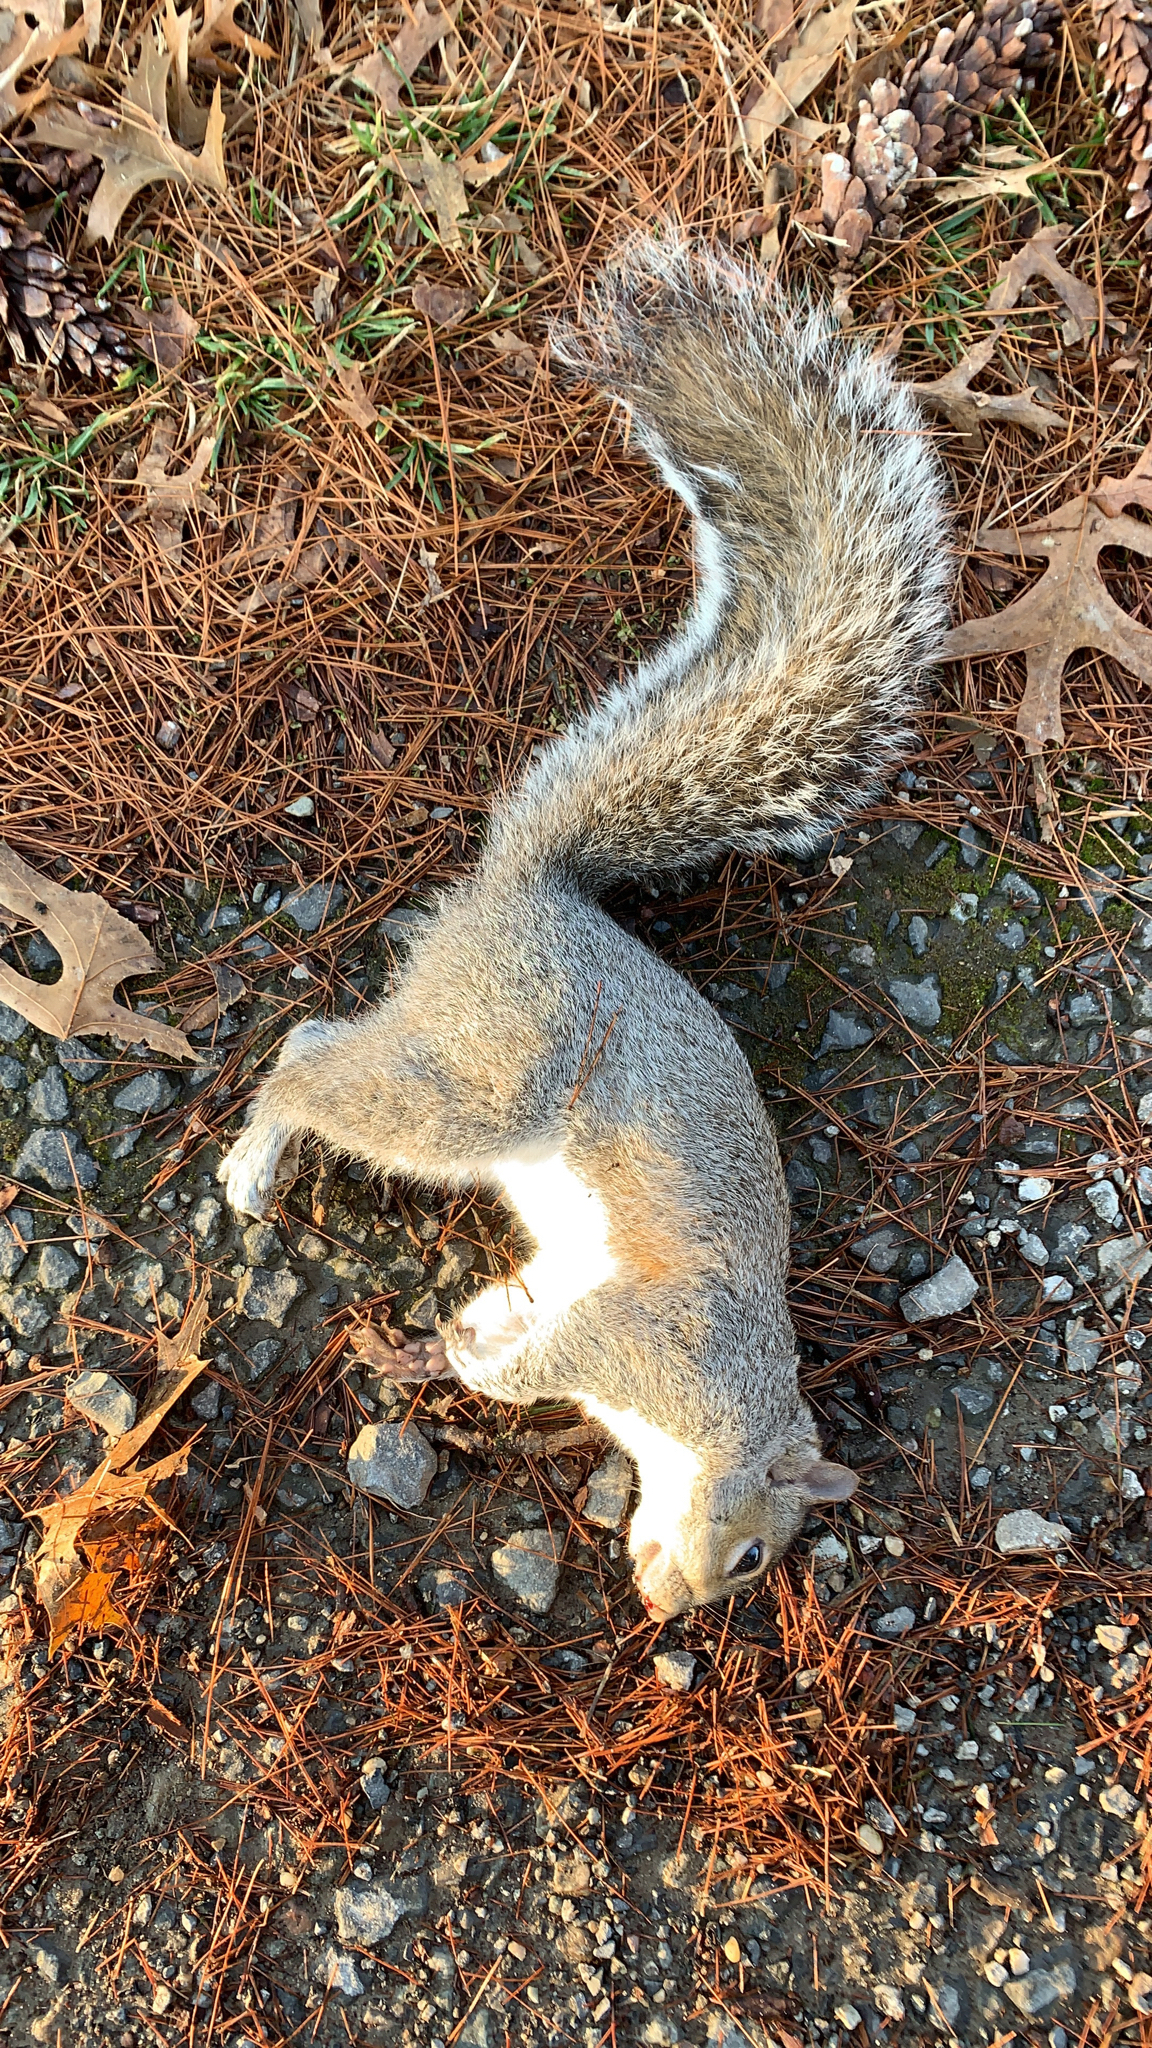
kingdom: Animalia
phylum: Chordata
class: Mammalia
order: Rodentia
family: Sciuridae
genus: Sciurus
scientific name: Sciurus carolinensis
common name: Eastern gray squirrel
